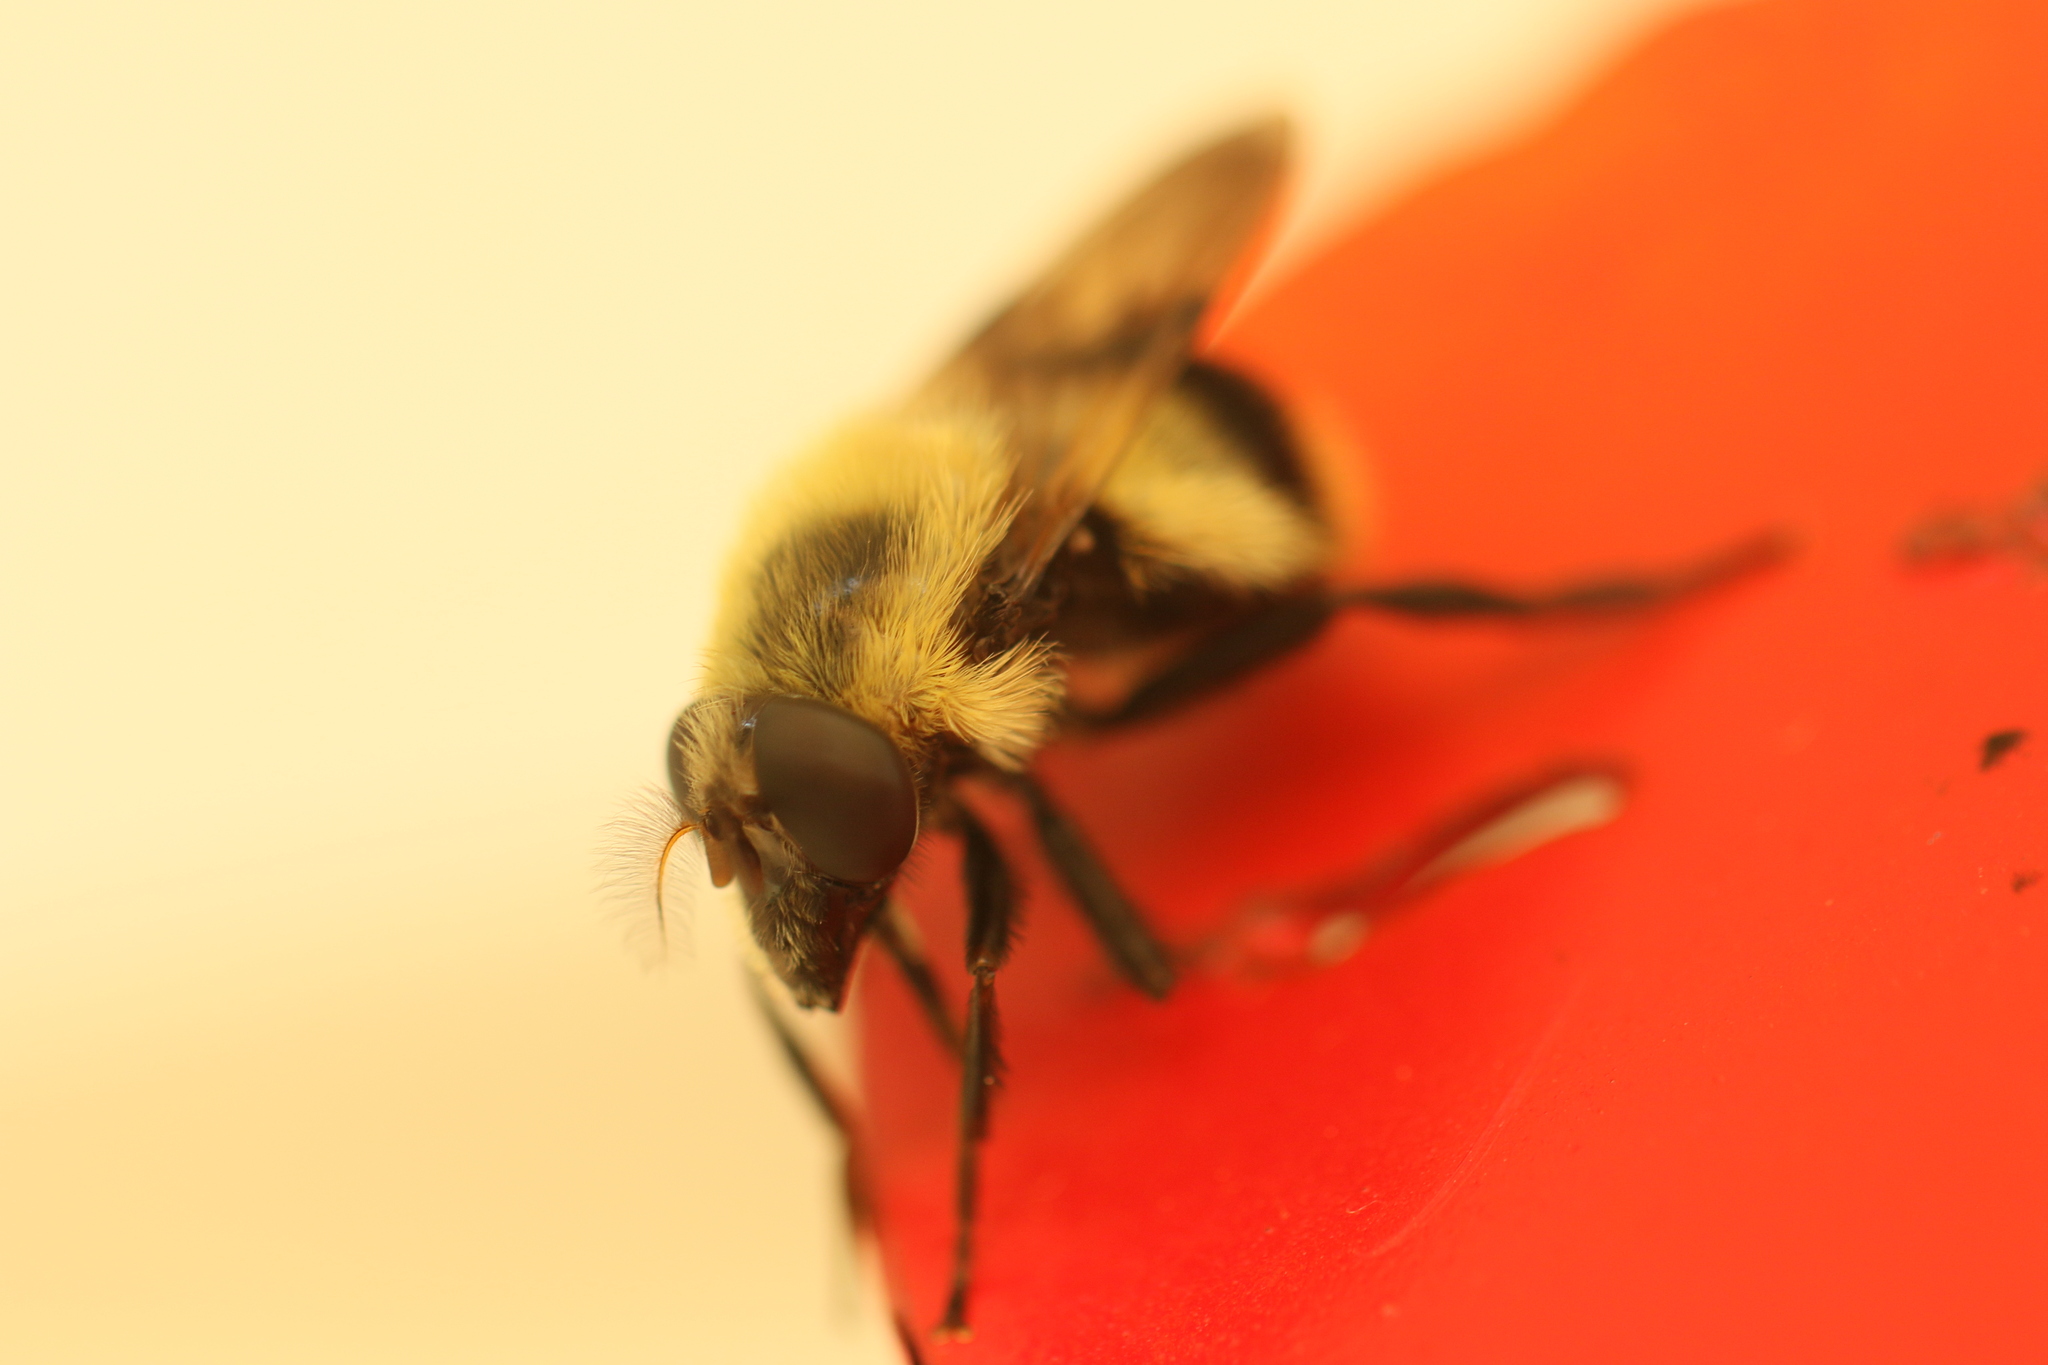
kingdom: Animalia
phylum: Arthropoda
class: Insecta
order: Diptera
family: Syrphidae
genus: Volucella
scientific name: Volucella evecta
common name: Eastern swiftwing
